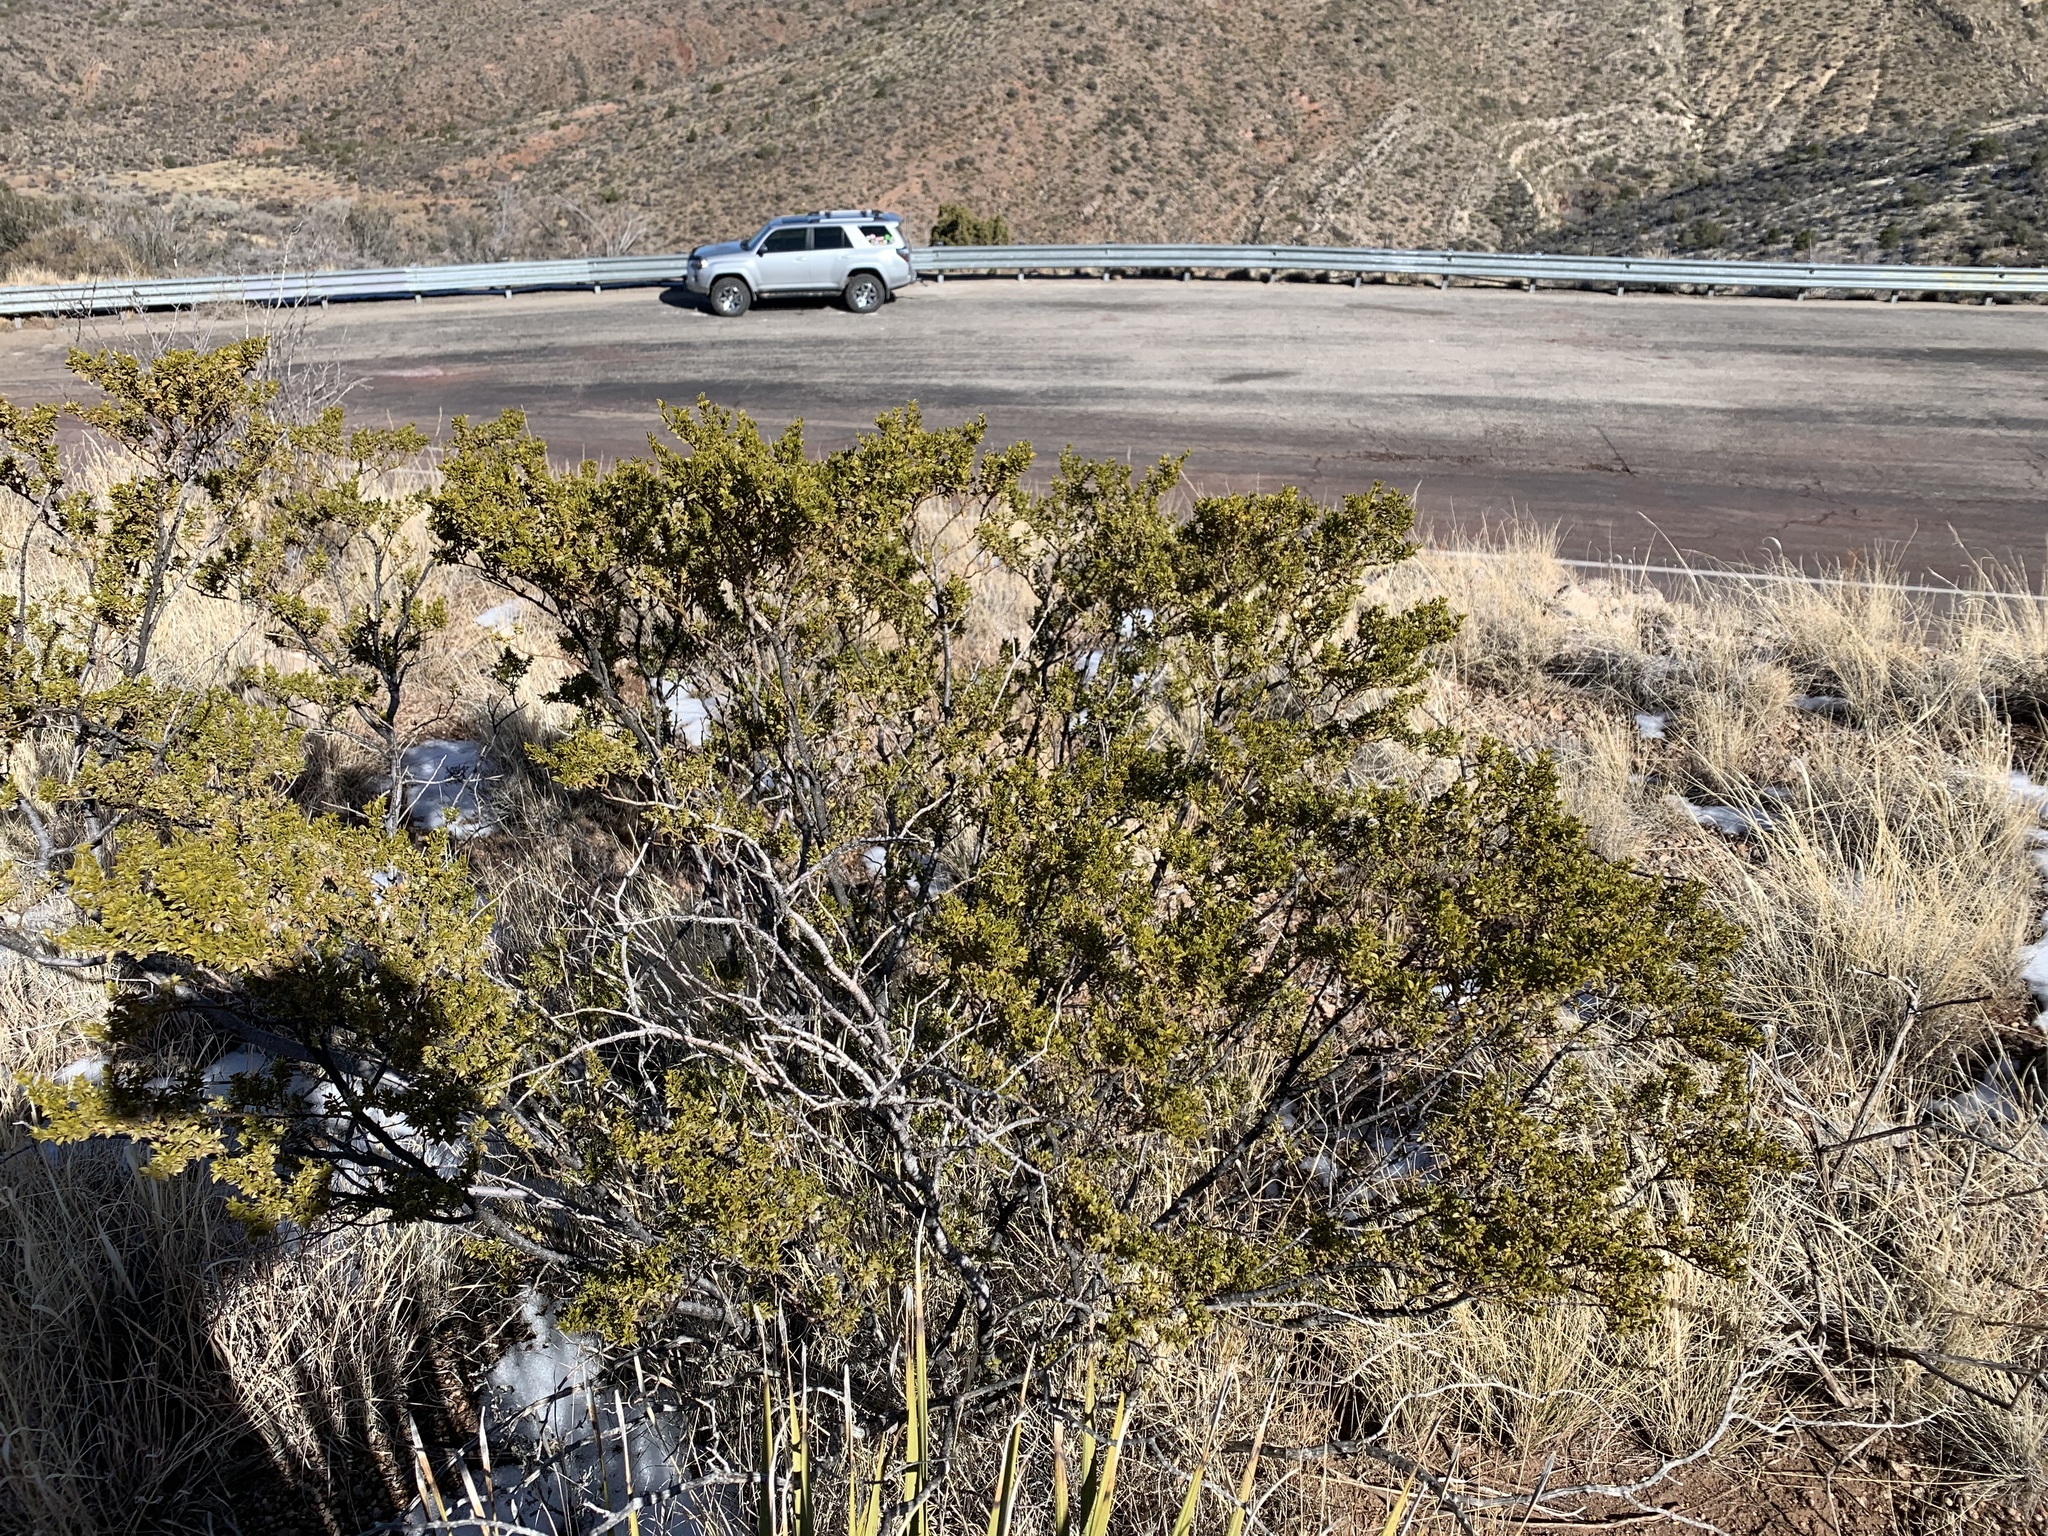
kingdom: Plantae
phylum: Tracheophyta
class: Magnoliopsida
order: Zygophyllales
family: Zygophyllaceae
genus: Larrea
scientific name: Larrea tridentata
